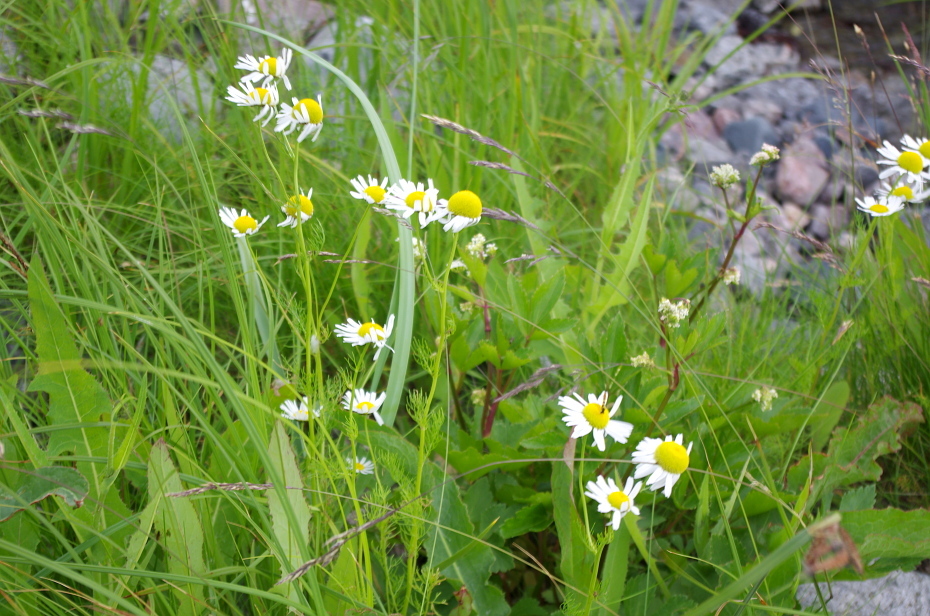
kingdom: Plantae
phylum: Tracheophyta
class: Magnoliopsida
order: Apiales
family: Apiaceae
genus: Ligusticum
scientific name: Ligusticum scothicum
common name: Beach lovage
